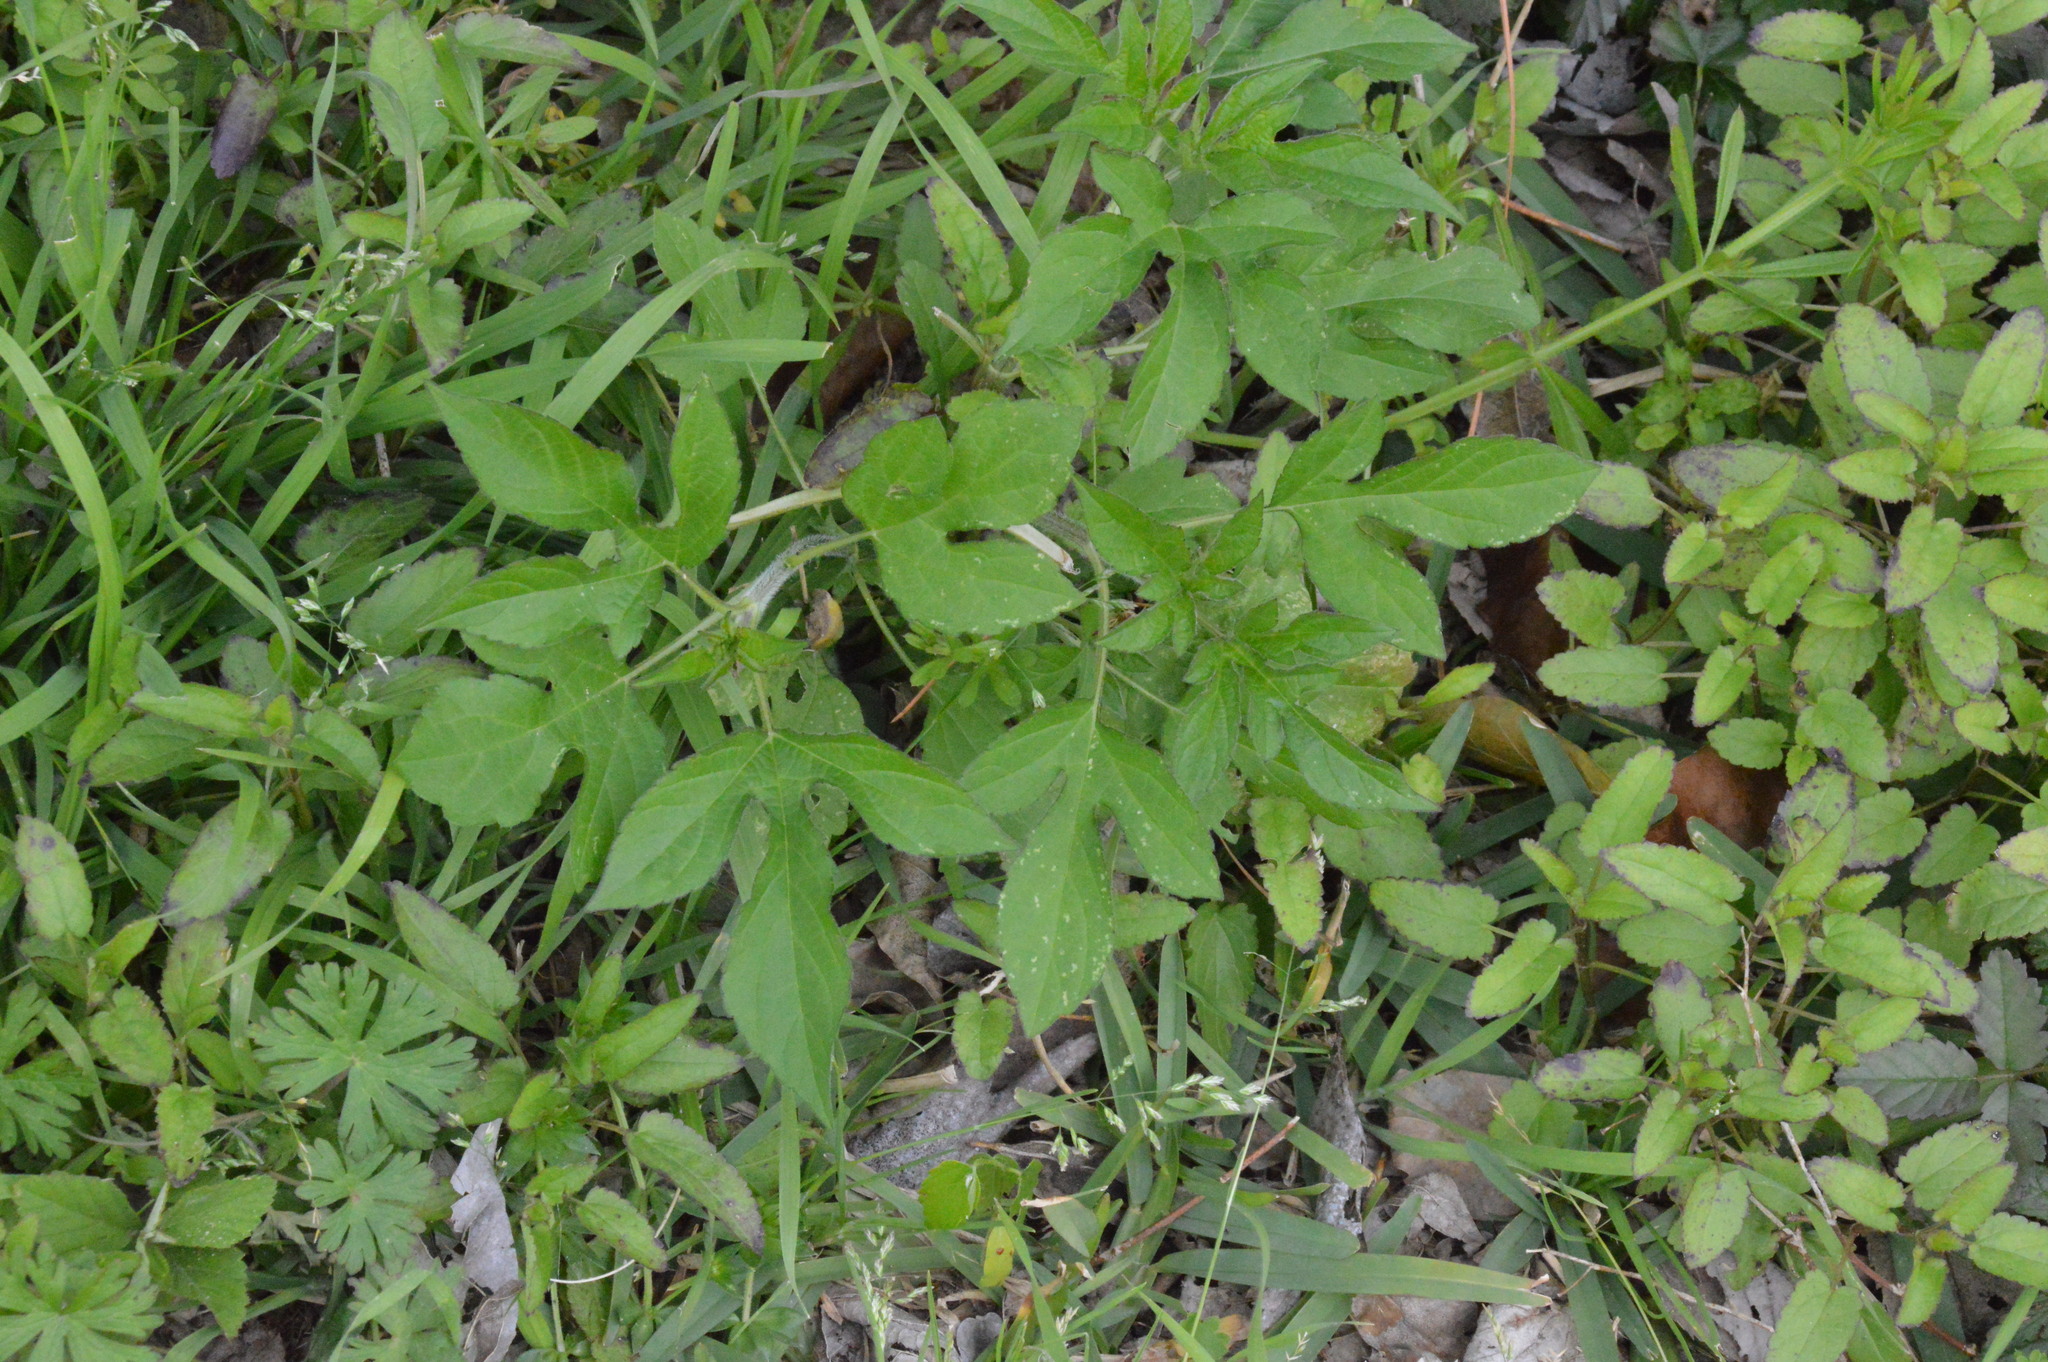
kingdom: Plantae
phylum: Tracheophyta
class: Magnoliopsida
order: Asterales
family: Asteraceae
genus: Ambrosia
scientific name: Ambrosia trifida
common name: Giant ragweed
